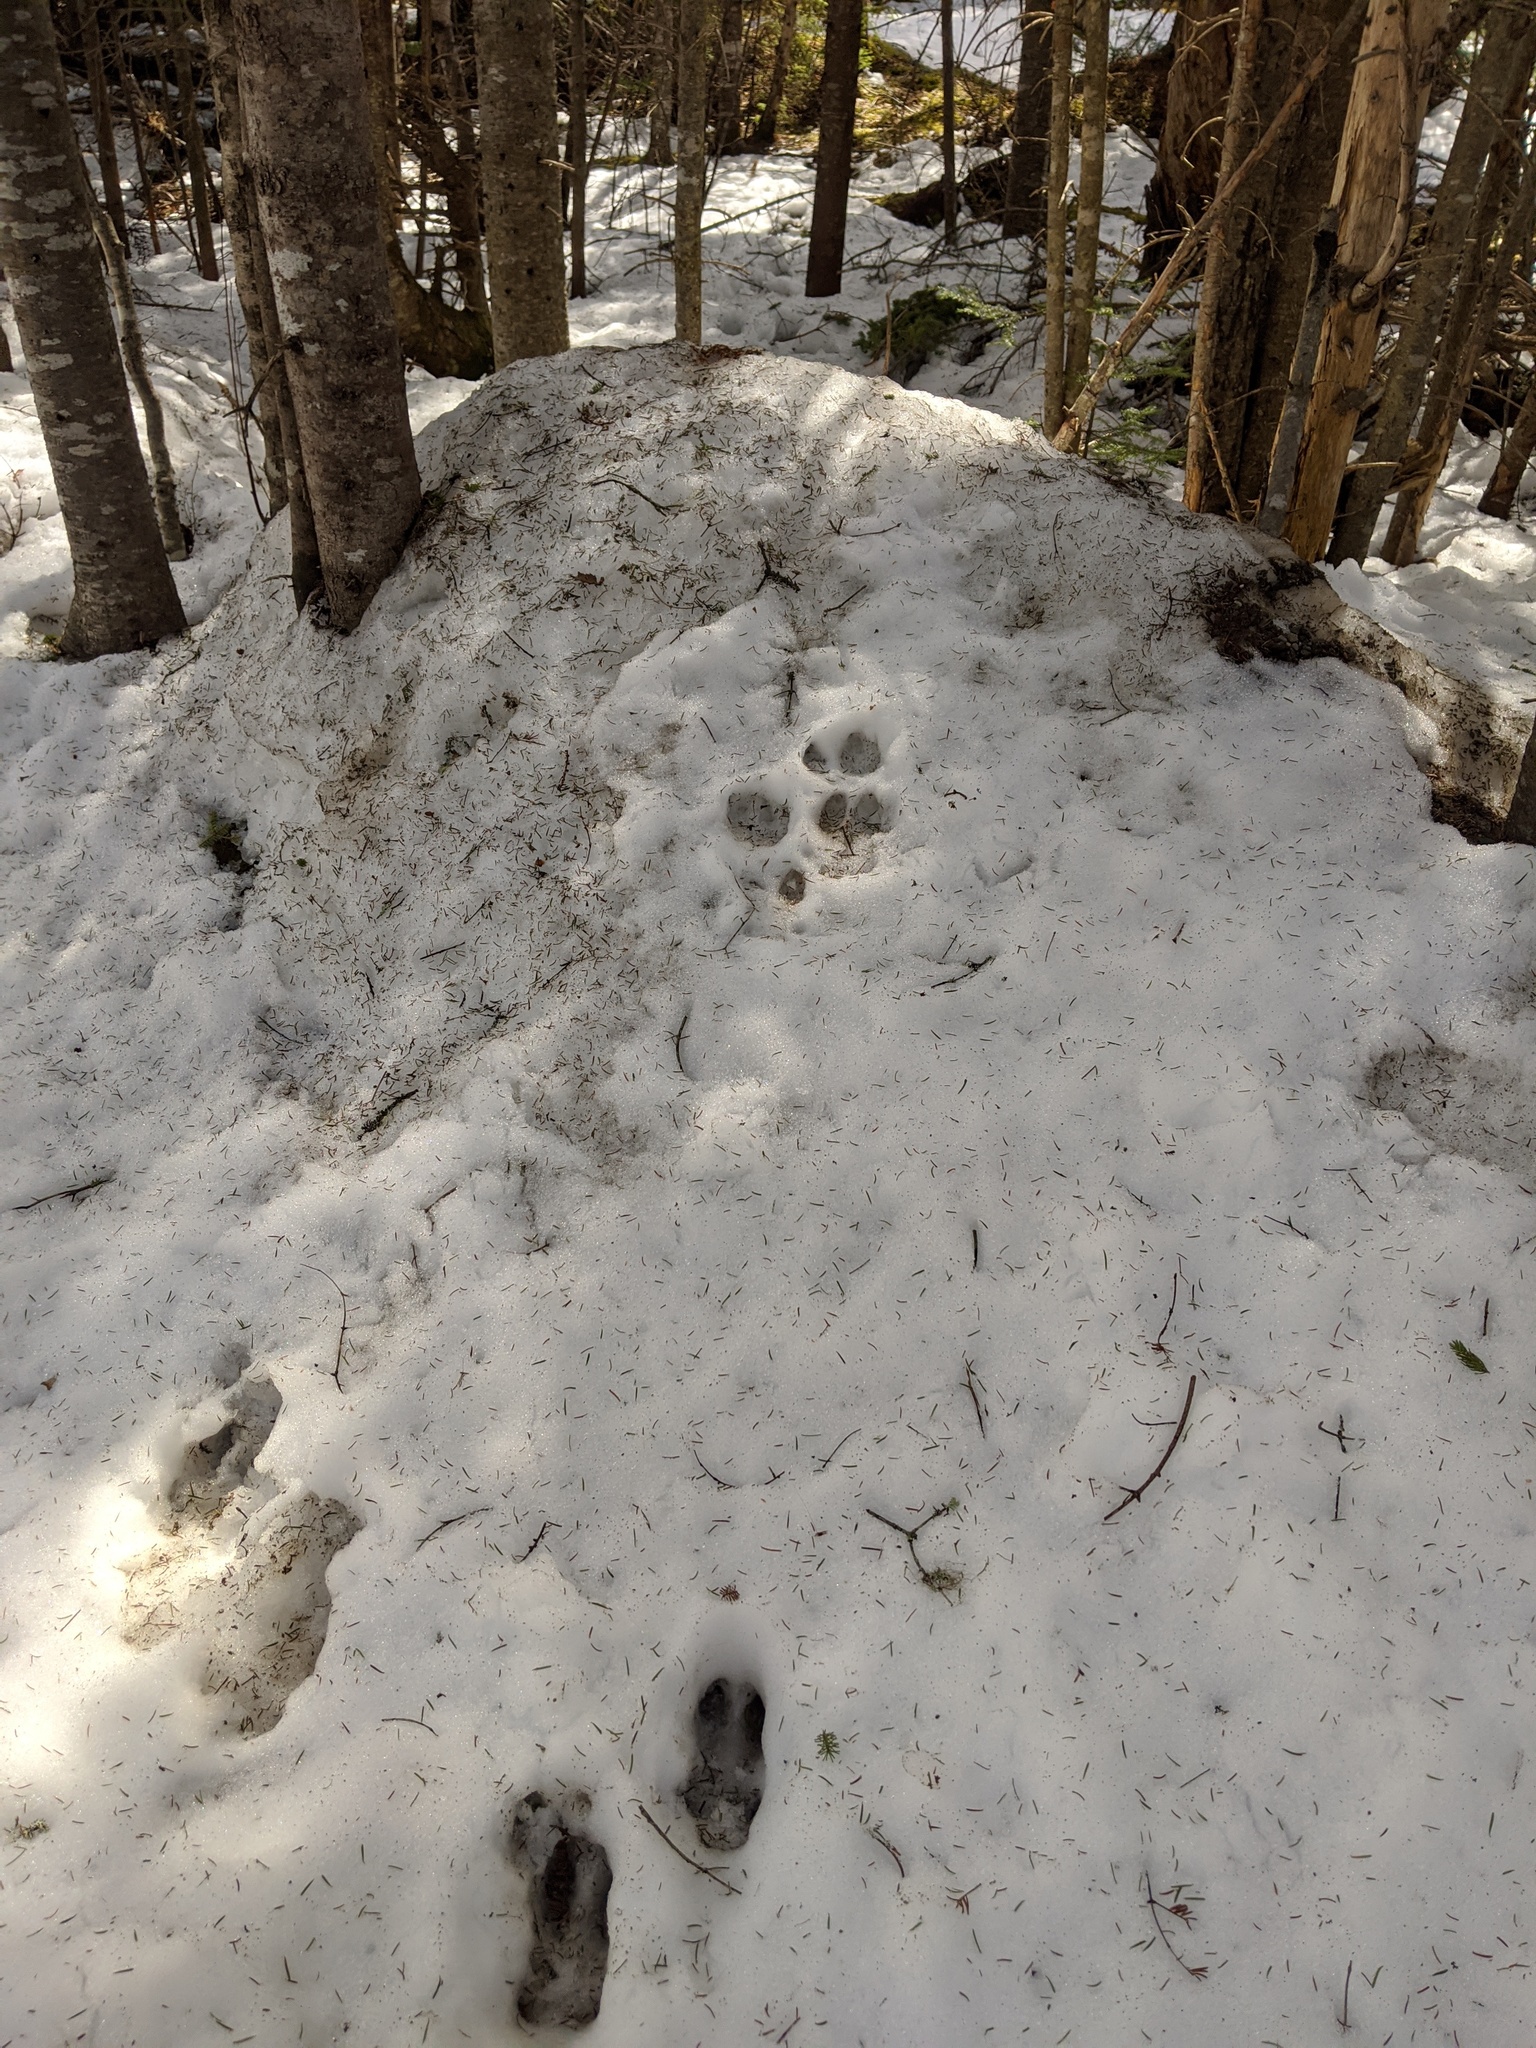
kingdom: Animalia
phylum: Chordata
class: Mammalia
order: Artiodactyla
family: Cervidae
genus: Odocoileus
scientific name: Odocoileus virginianus
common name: White-tailed deer
